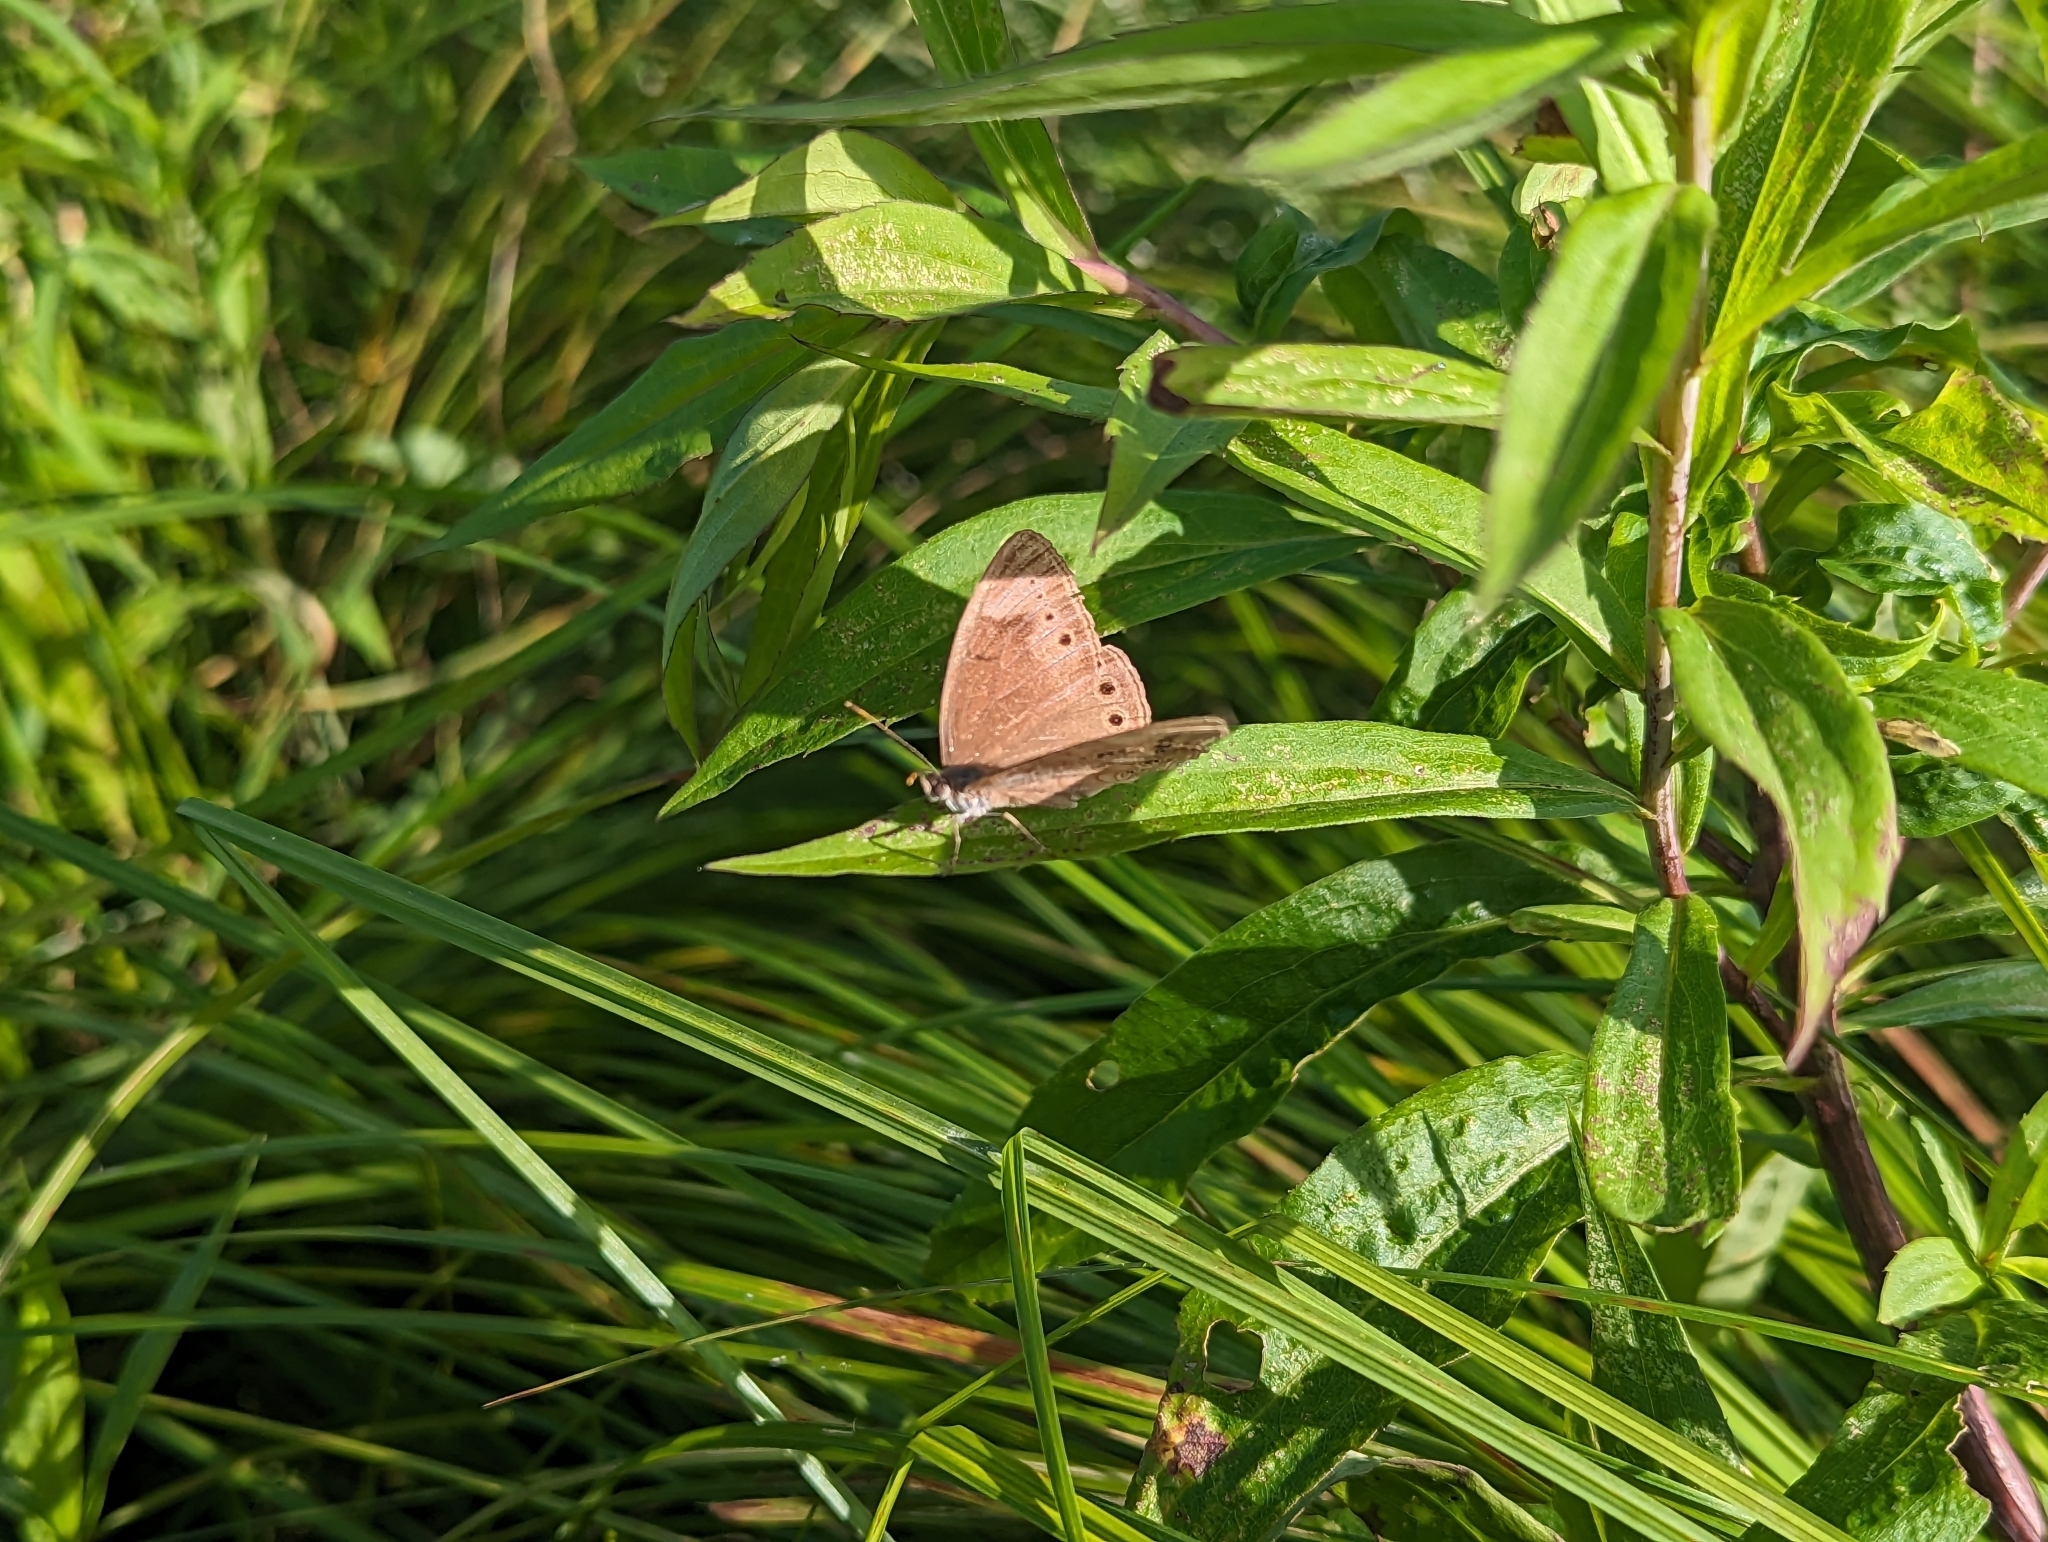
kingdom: Animalia
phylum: Arthropoda
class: Insecta
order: Lepidoptera
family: Nymphalidae
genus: Lethe
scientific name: Lethe eurydice
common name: Eyed brown
